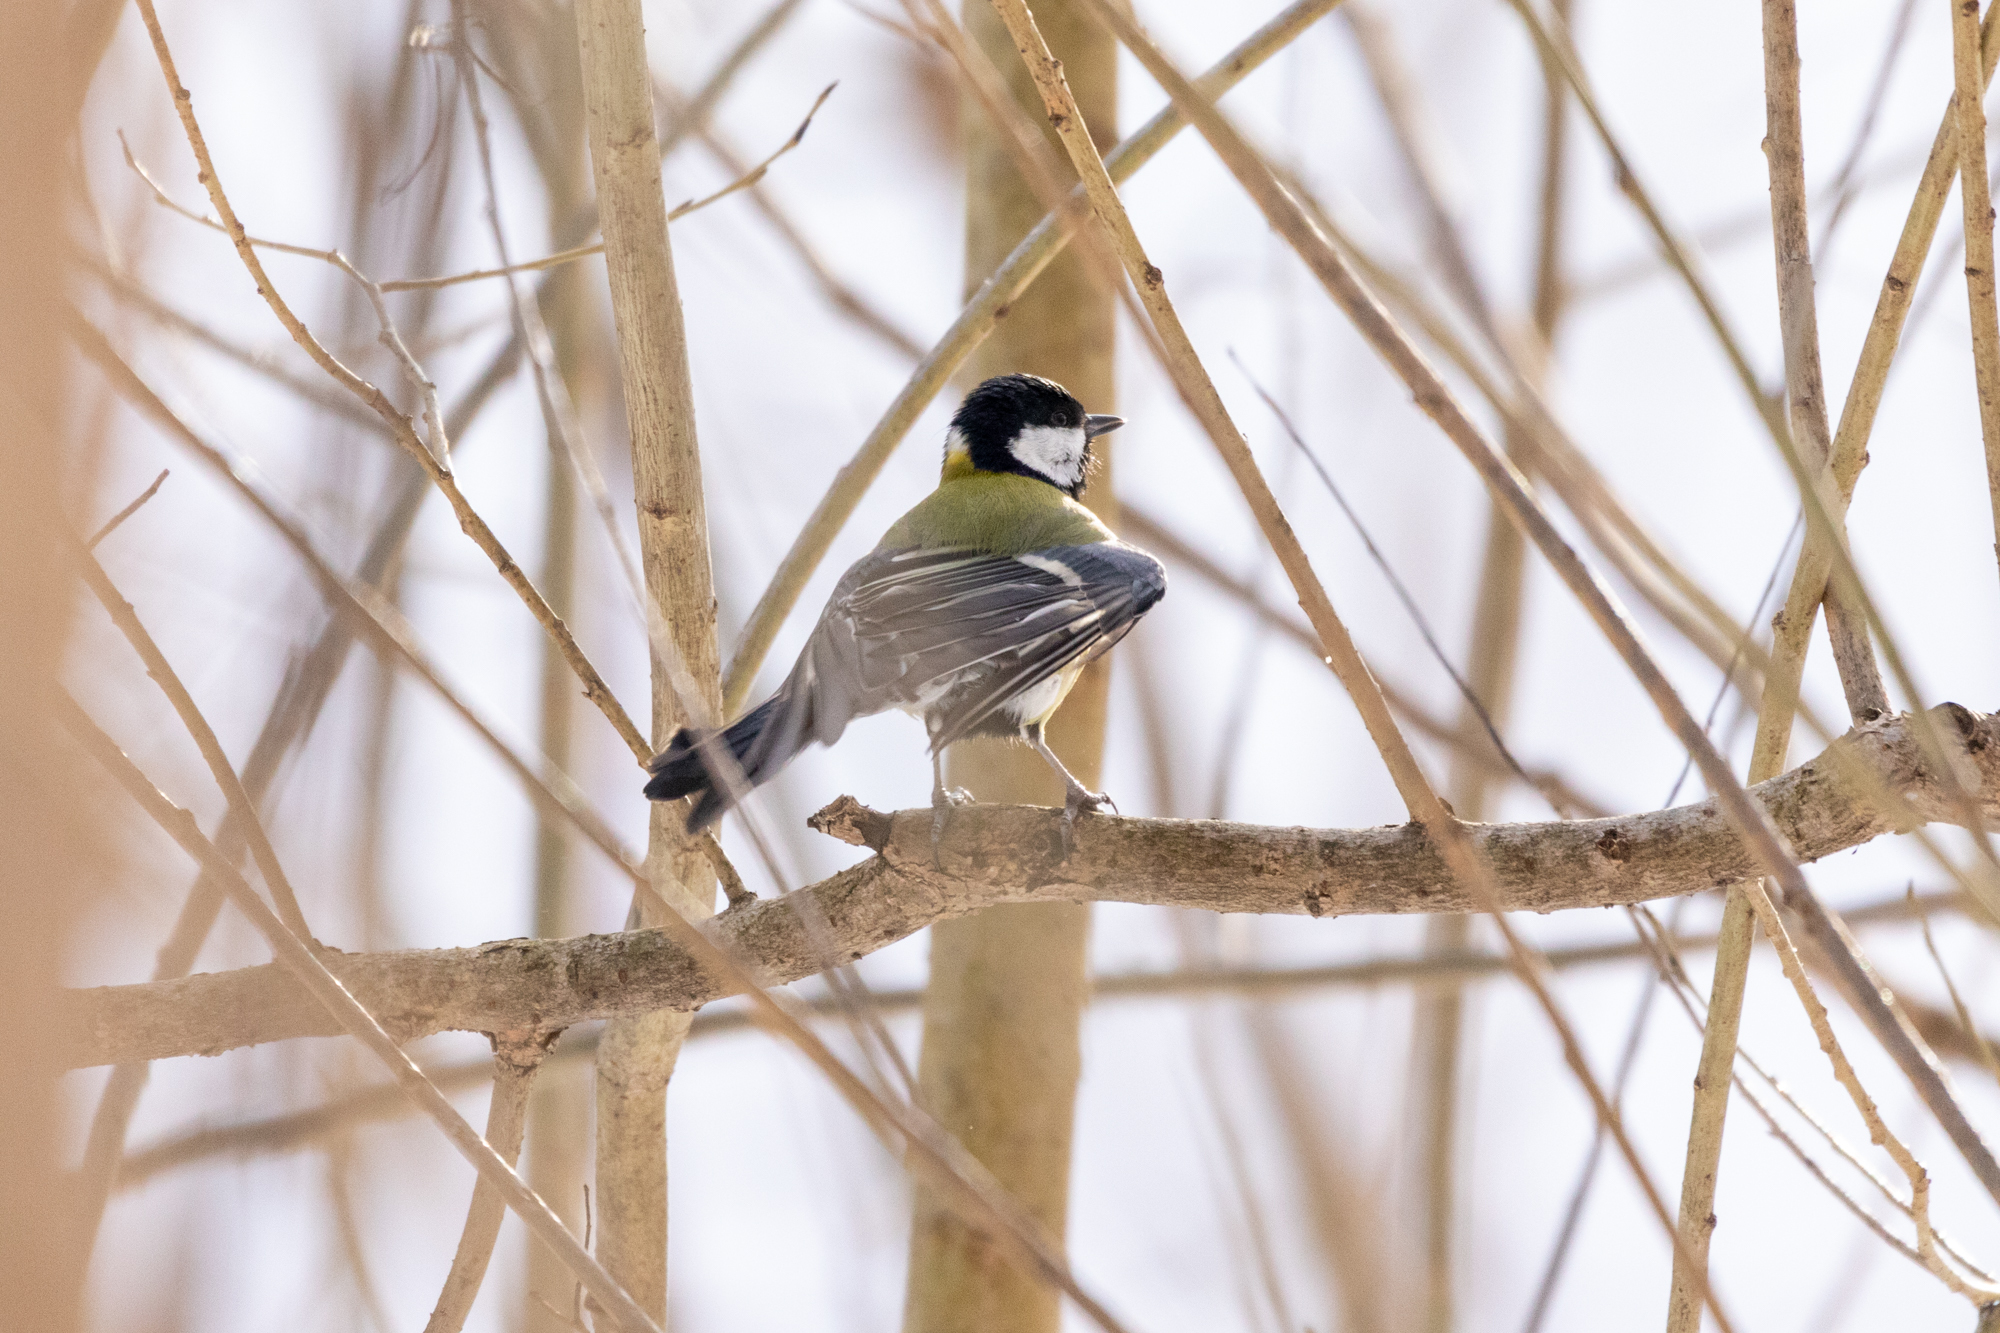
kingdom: Animalia
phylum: Chordata
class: Aves
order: Passeriformes
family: Paridae
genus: Parus
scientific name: Parus major
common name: Great tit
